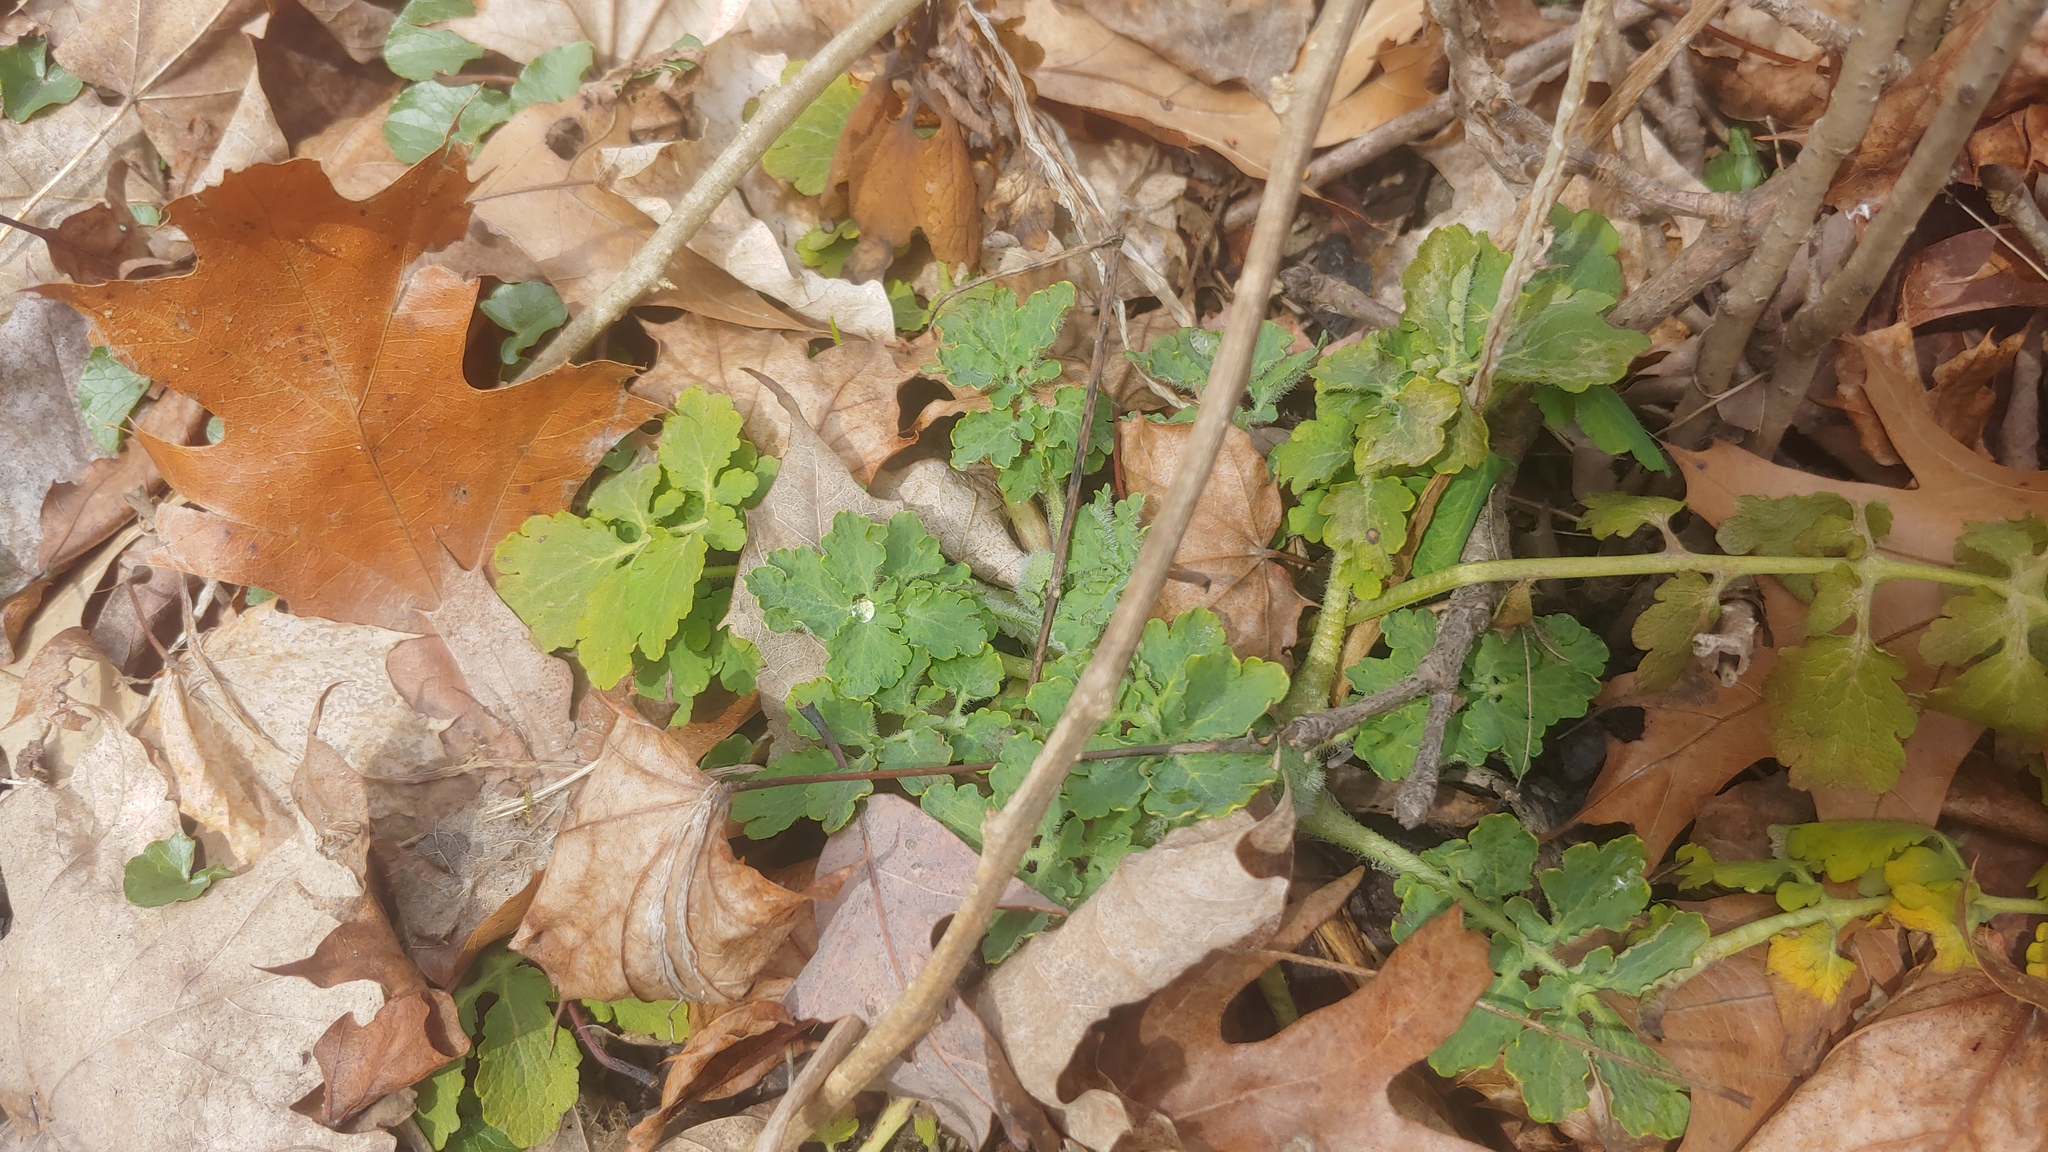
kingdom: Plantae
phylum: Tracheophyta
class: Magnoliopsida
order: Ranunculales
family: Papaveraceae
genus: Chelidonium
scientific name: Chelidonium majus
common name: Greater celandine
